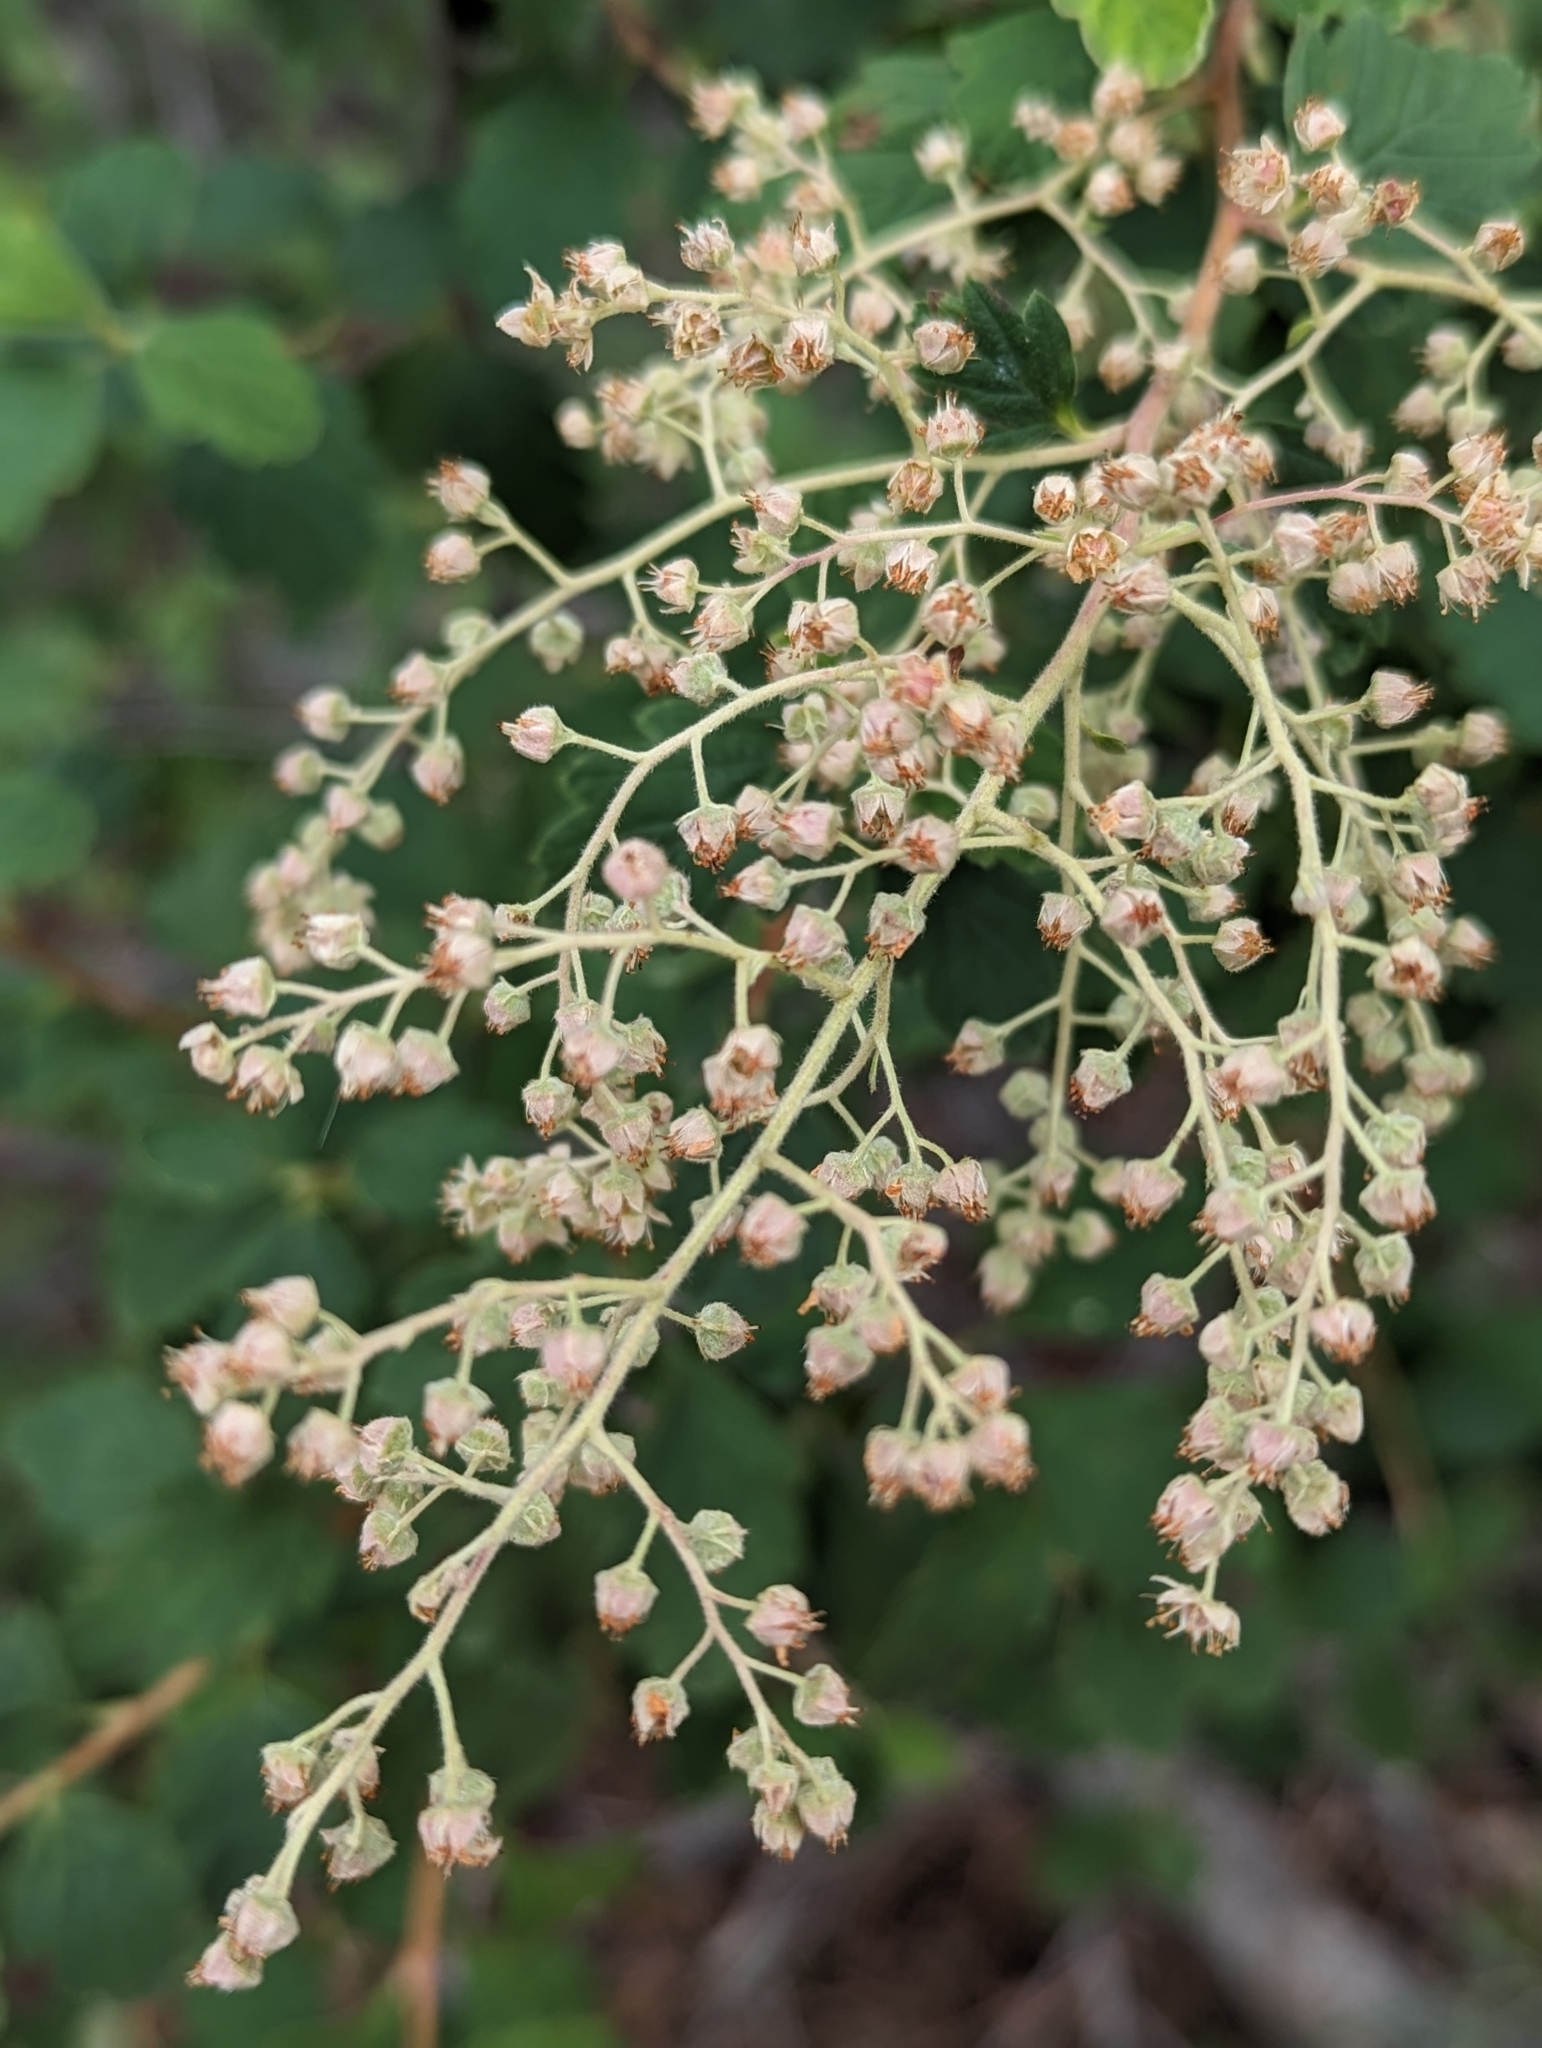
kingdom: Plantae
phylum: Tracheophyta
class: Magnoliopsida
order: Rosales
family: Rosaceae
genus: Holodiscus
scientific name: Holodiscus discolor
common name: Oceanspray
